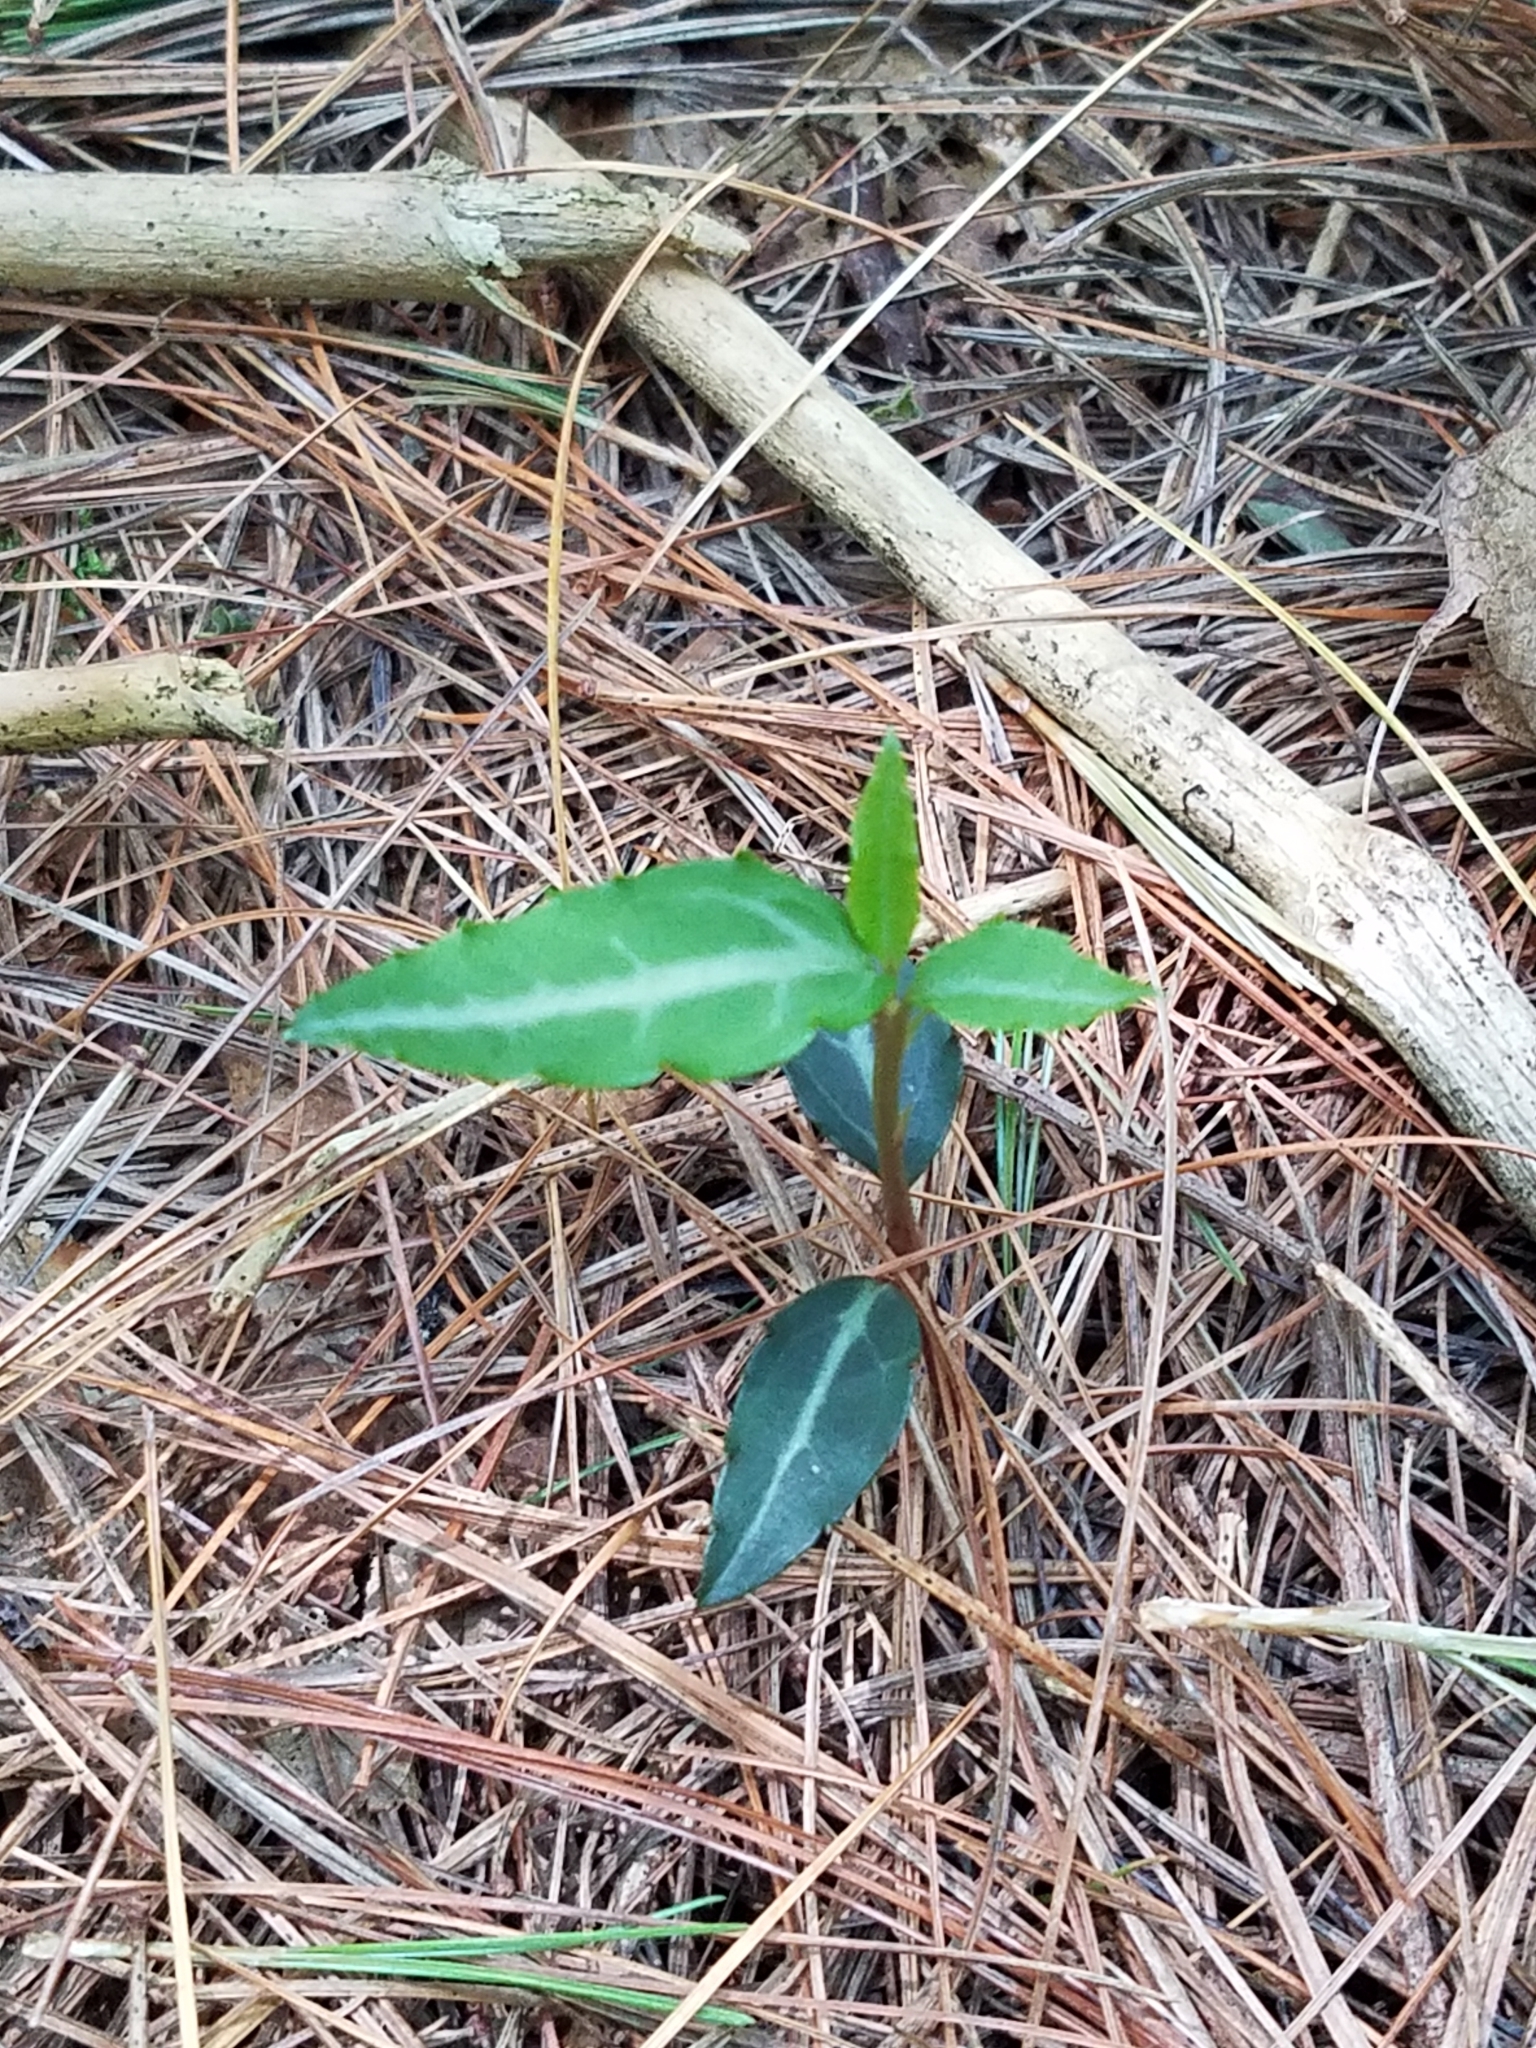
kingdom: Plantae
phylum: Tracheophyta
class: Magnoliopsida
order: Ericales
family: Ericaceae
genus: Chimaphila
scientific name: Chimaphila maculata
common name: Spotted pipsissewa
